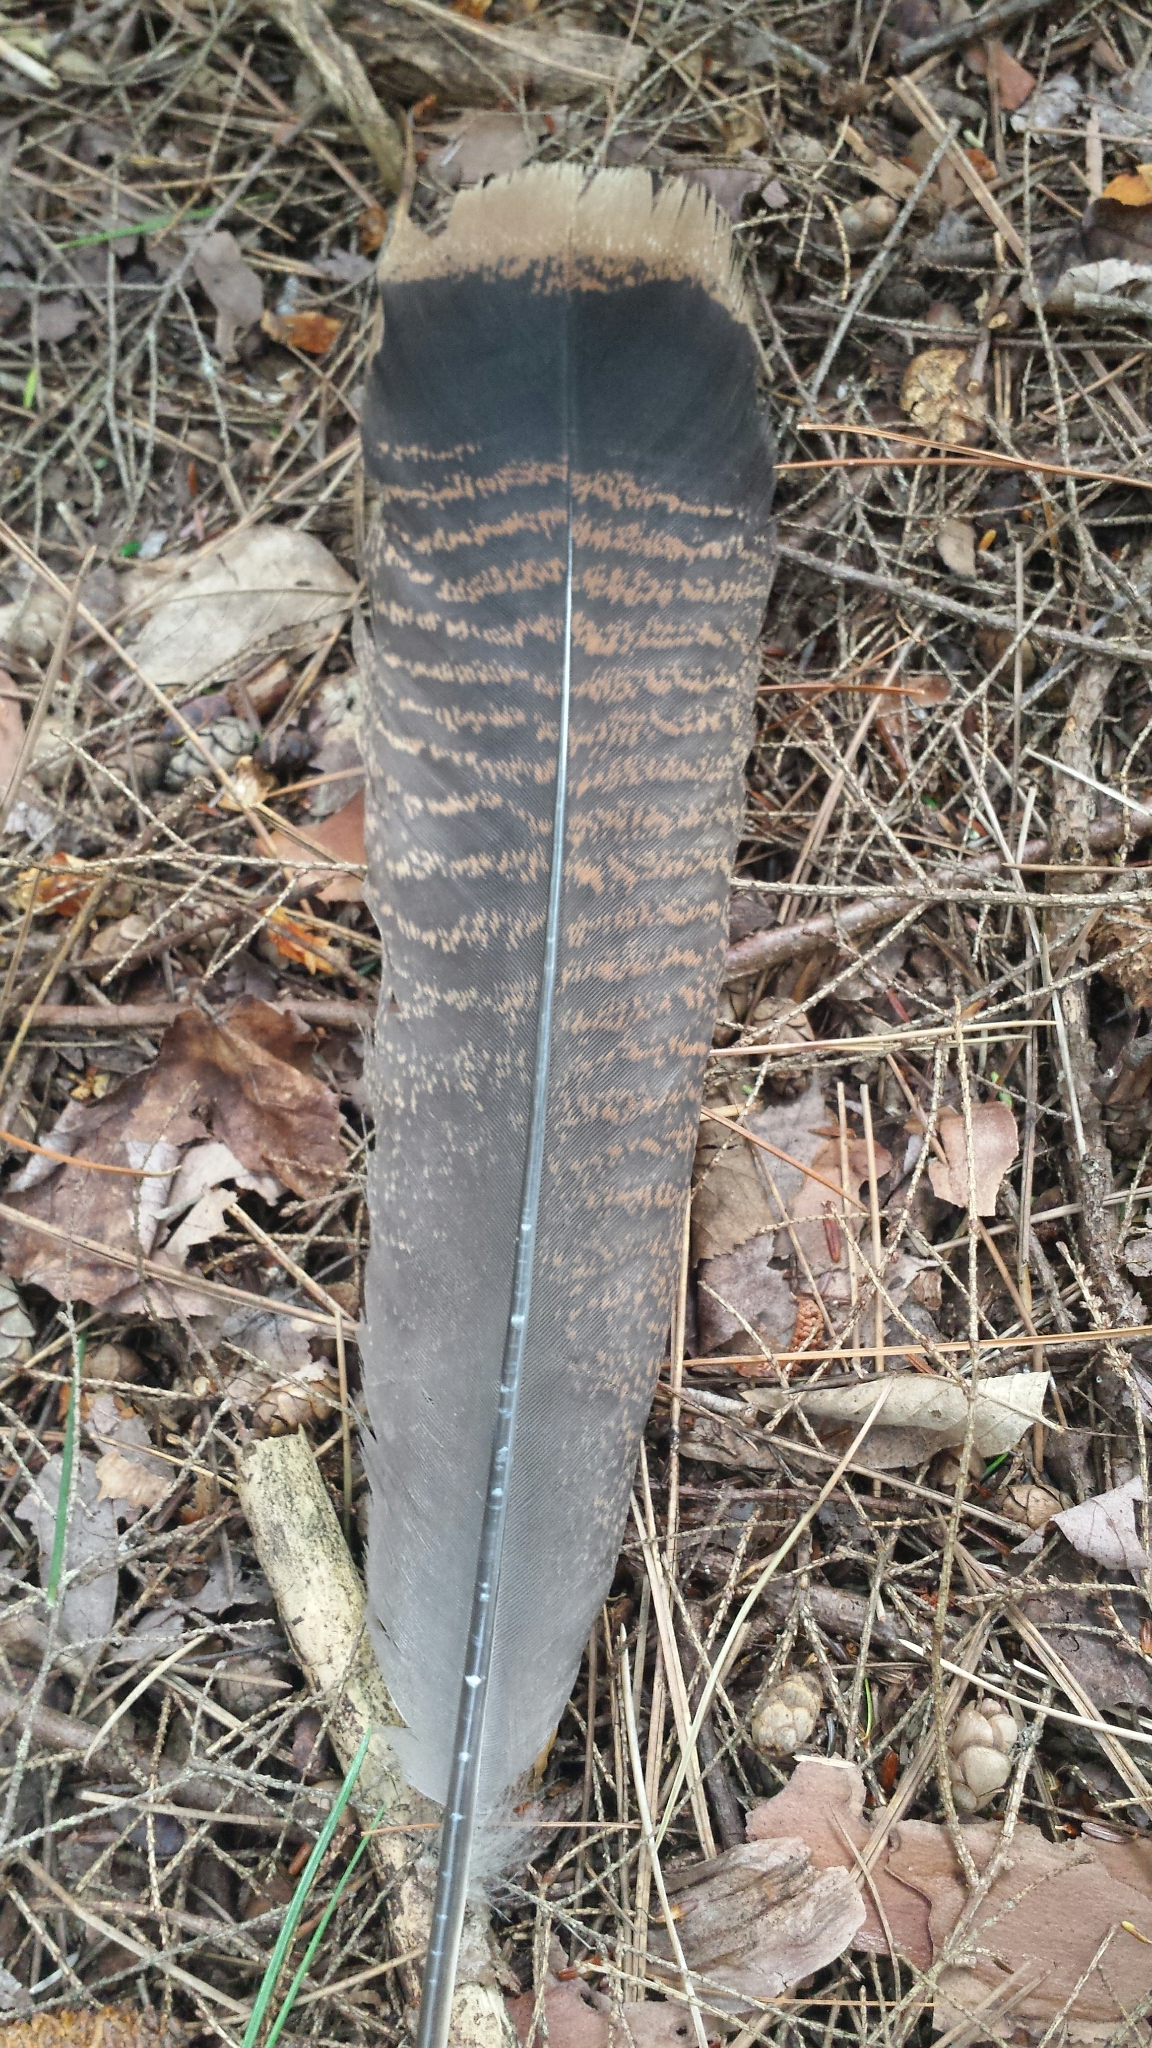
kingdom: Animalia
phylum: Chordata
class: Aves
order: Galliformes
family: Phasianidae
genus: Meleagris
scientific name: Meleagris gallopavo
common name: Wild turkey
